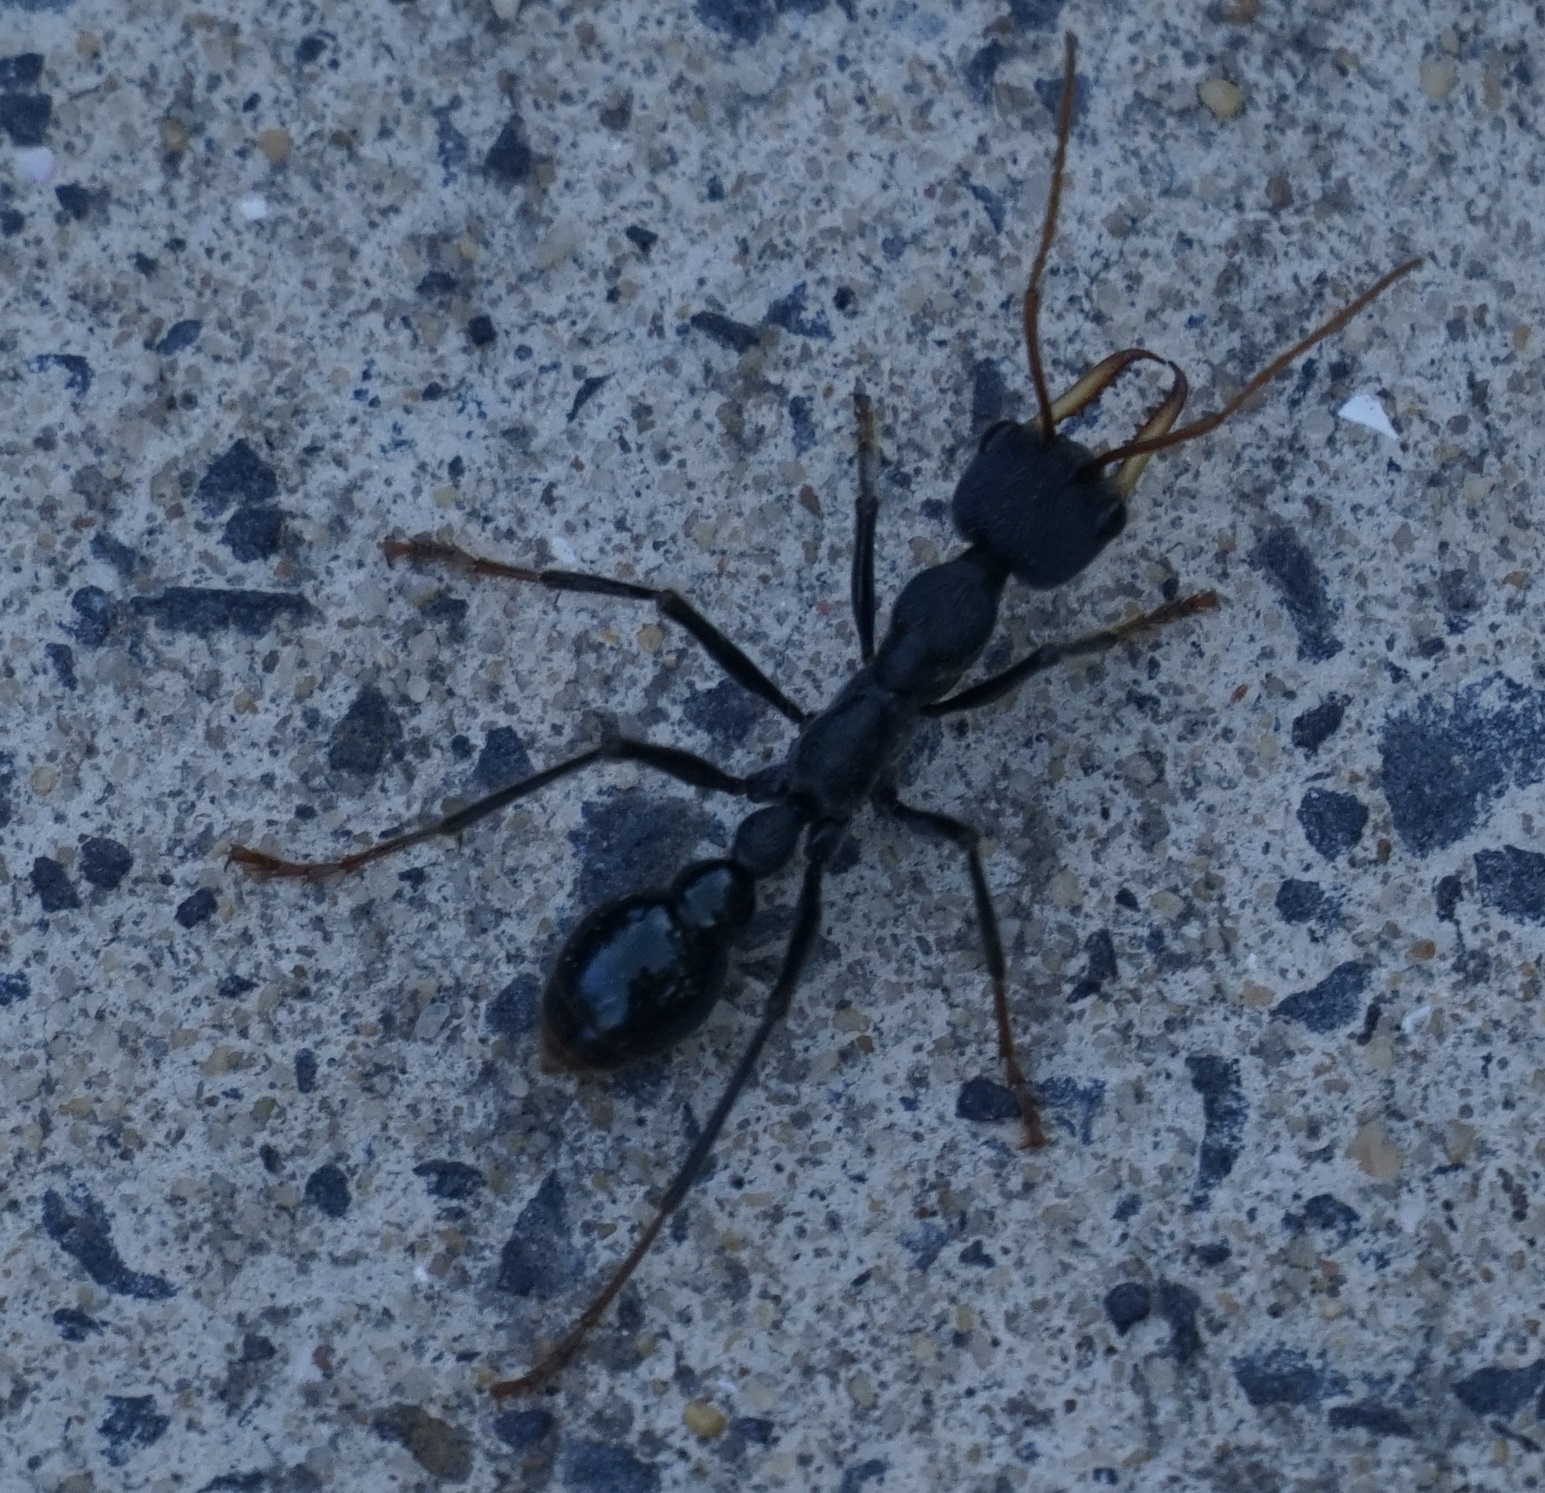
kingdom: Animalia
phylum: Arthropoda
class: Insecta
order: Hymenoptera
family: Formicidae
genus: Myrmecia
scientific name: Myrmecia tarsata
